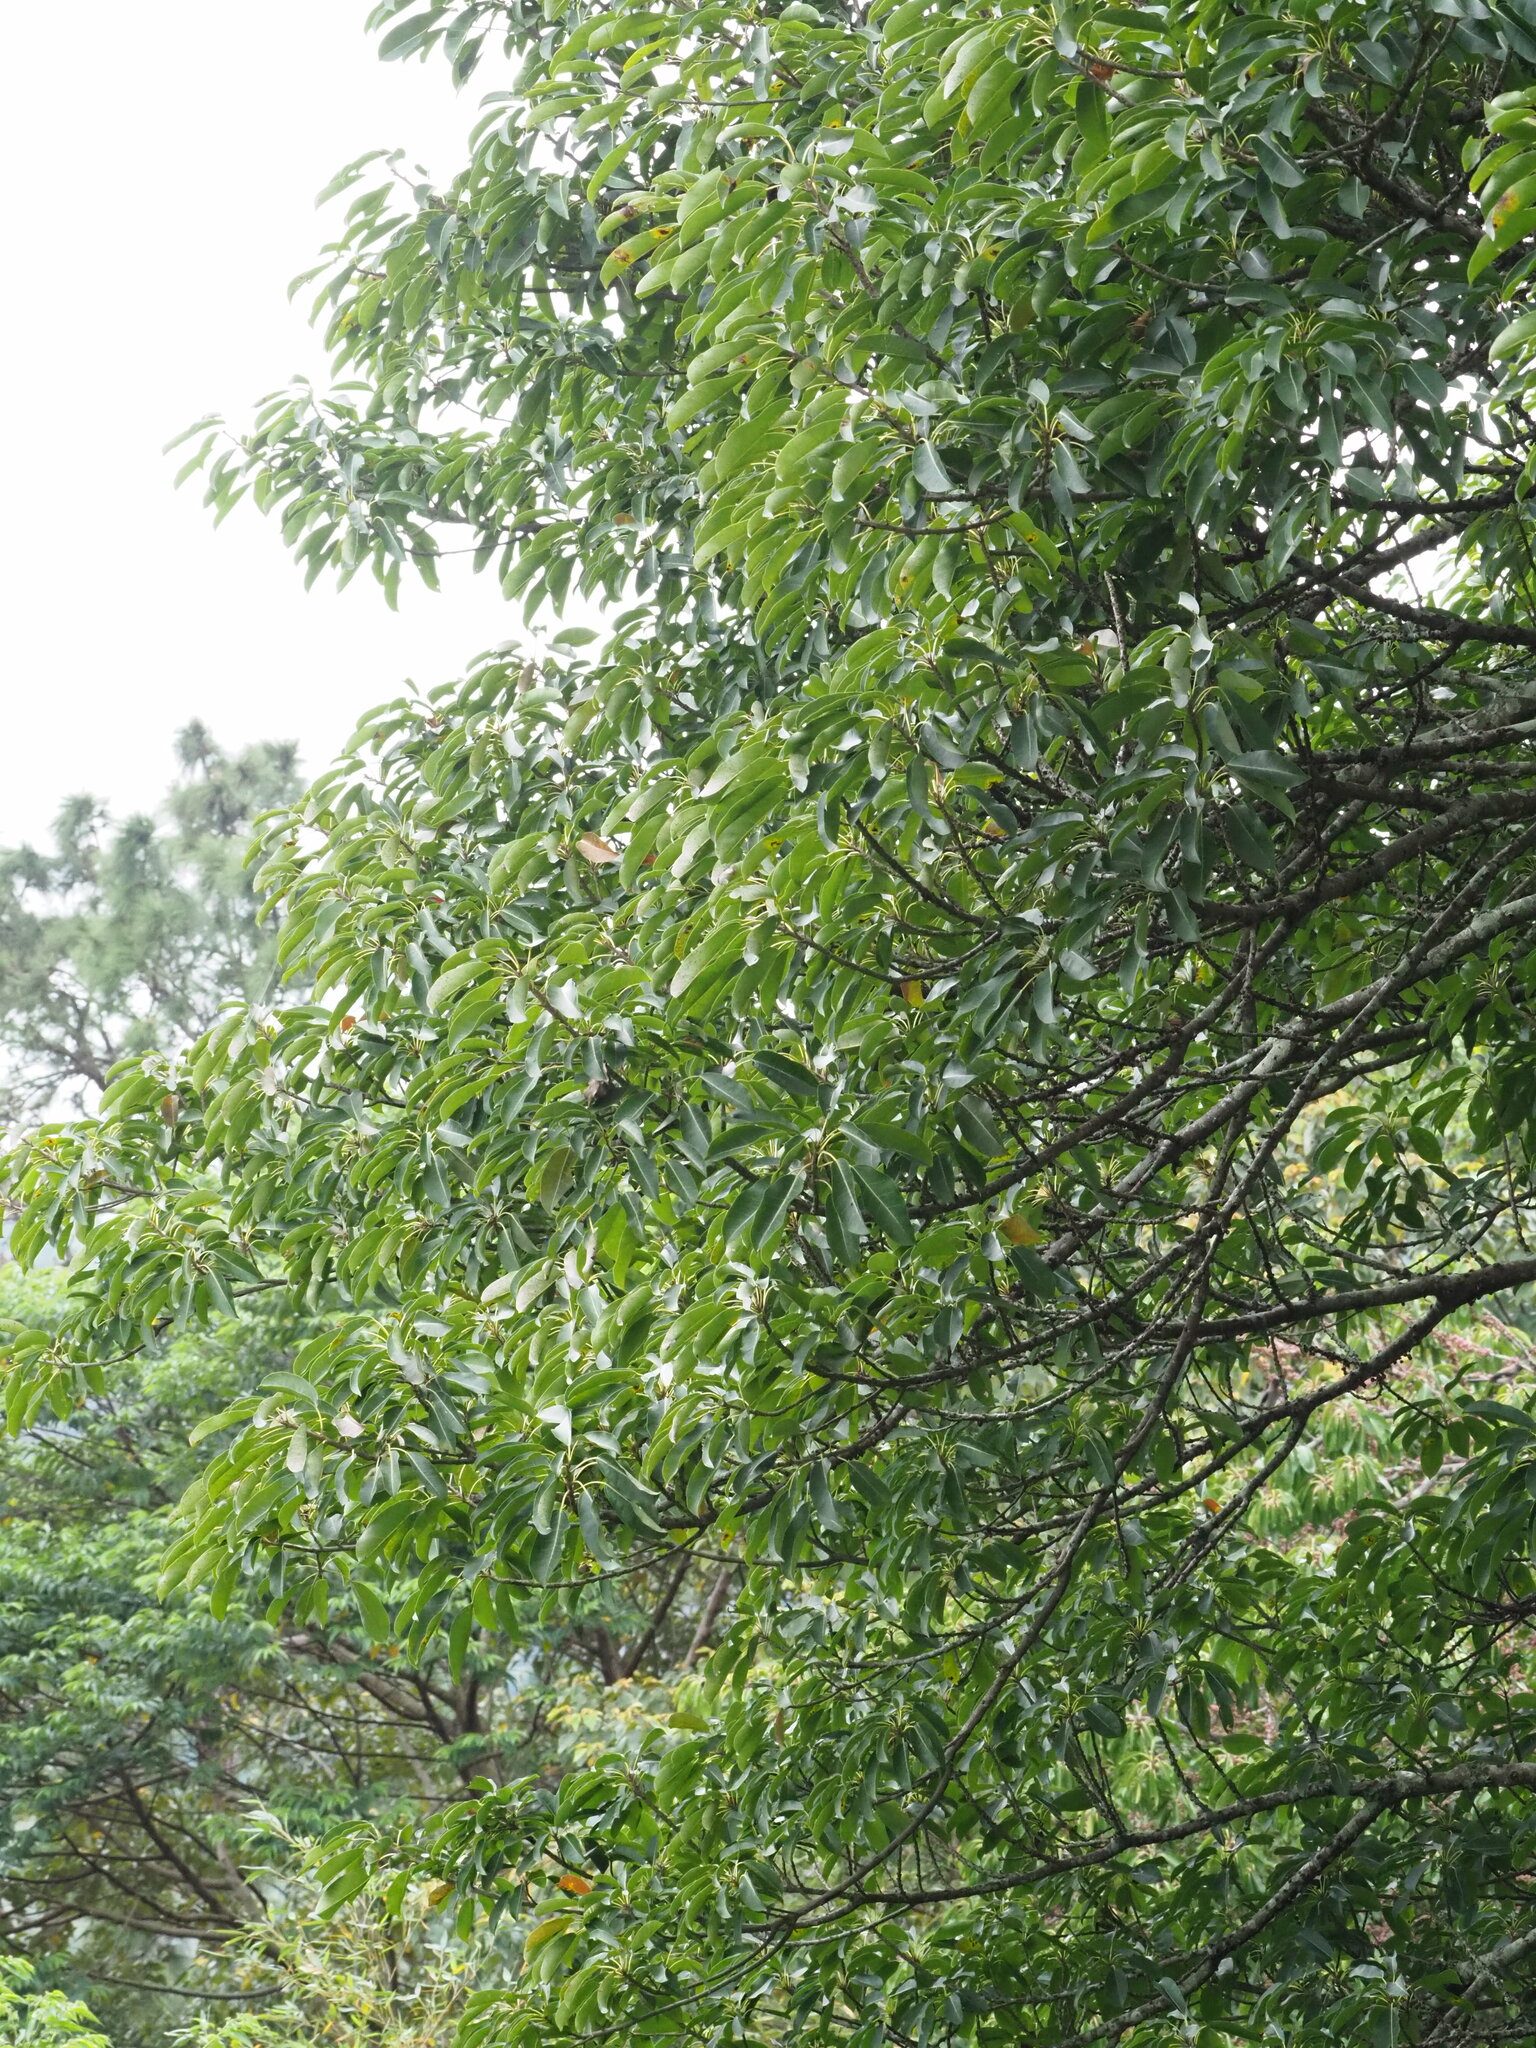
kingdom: Plantae
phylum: Tracheophyta
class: Magnoliopsida
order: Rosales
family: Moraceae
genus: Ficus
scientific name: Ficus subpisocarpa
